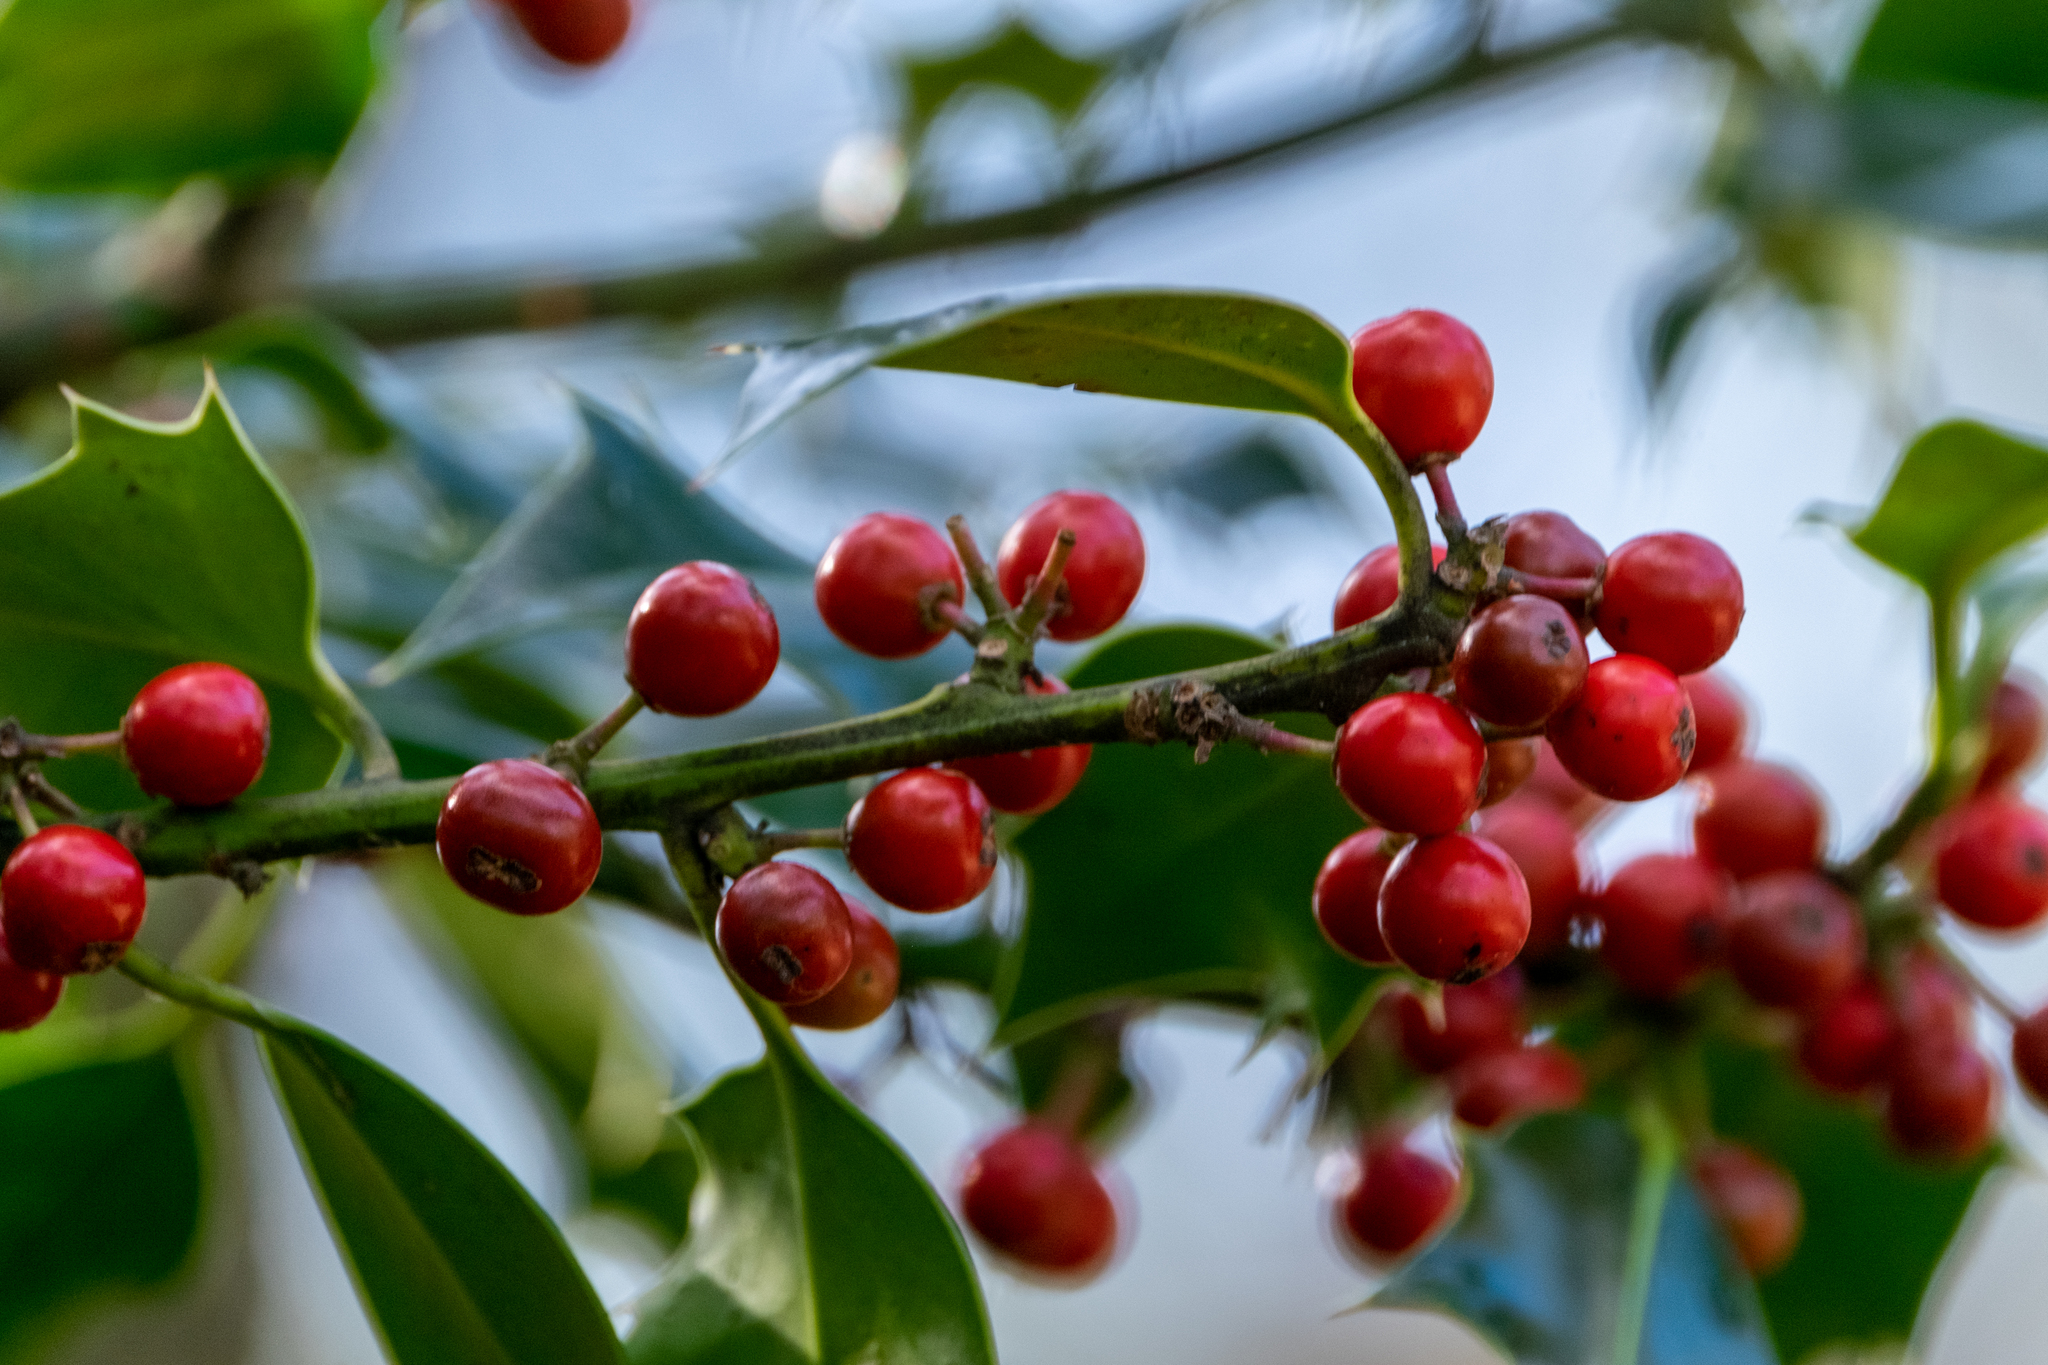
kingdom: Plantae
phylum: Tracheophyta
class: Magnoliopsida
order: Aquifoliales
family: Aquifoliaceae
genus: Ilex
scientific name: Ilex aquifolium
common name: English holly
